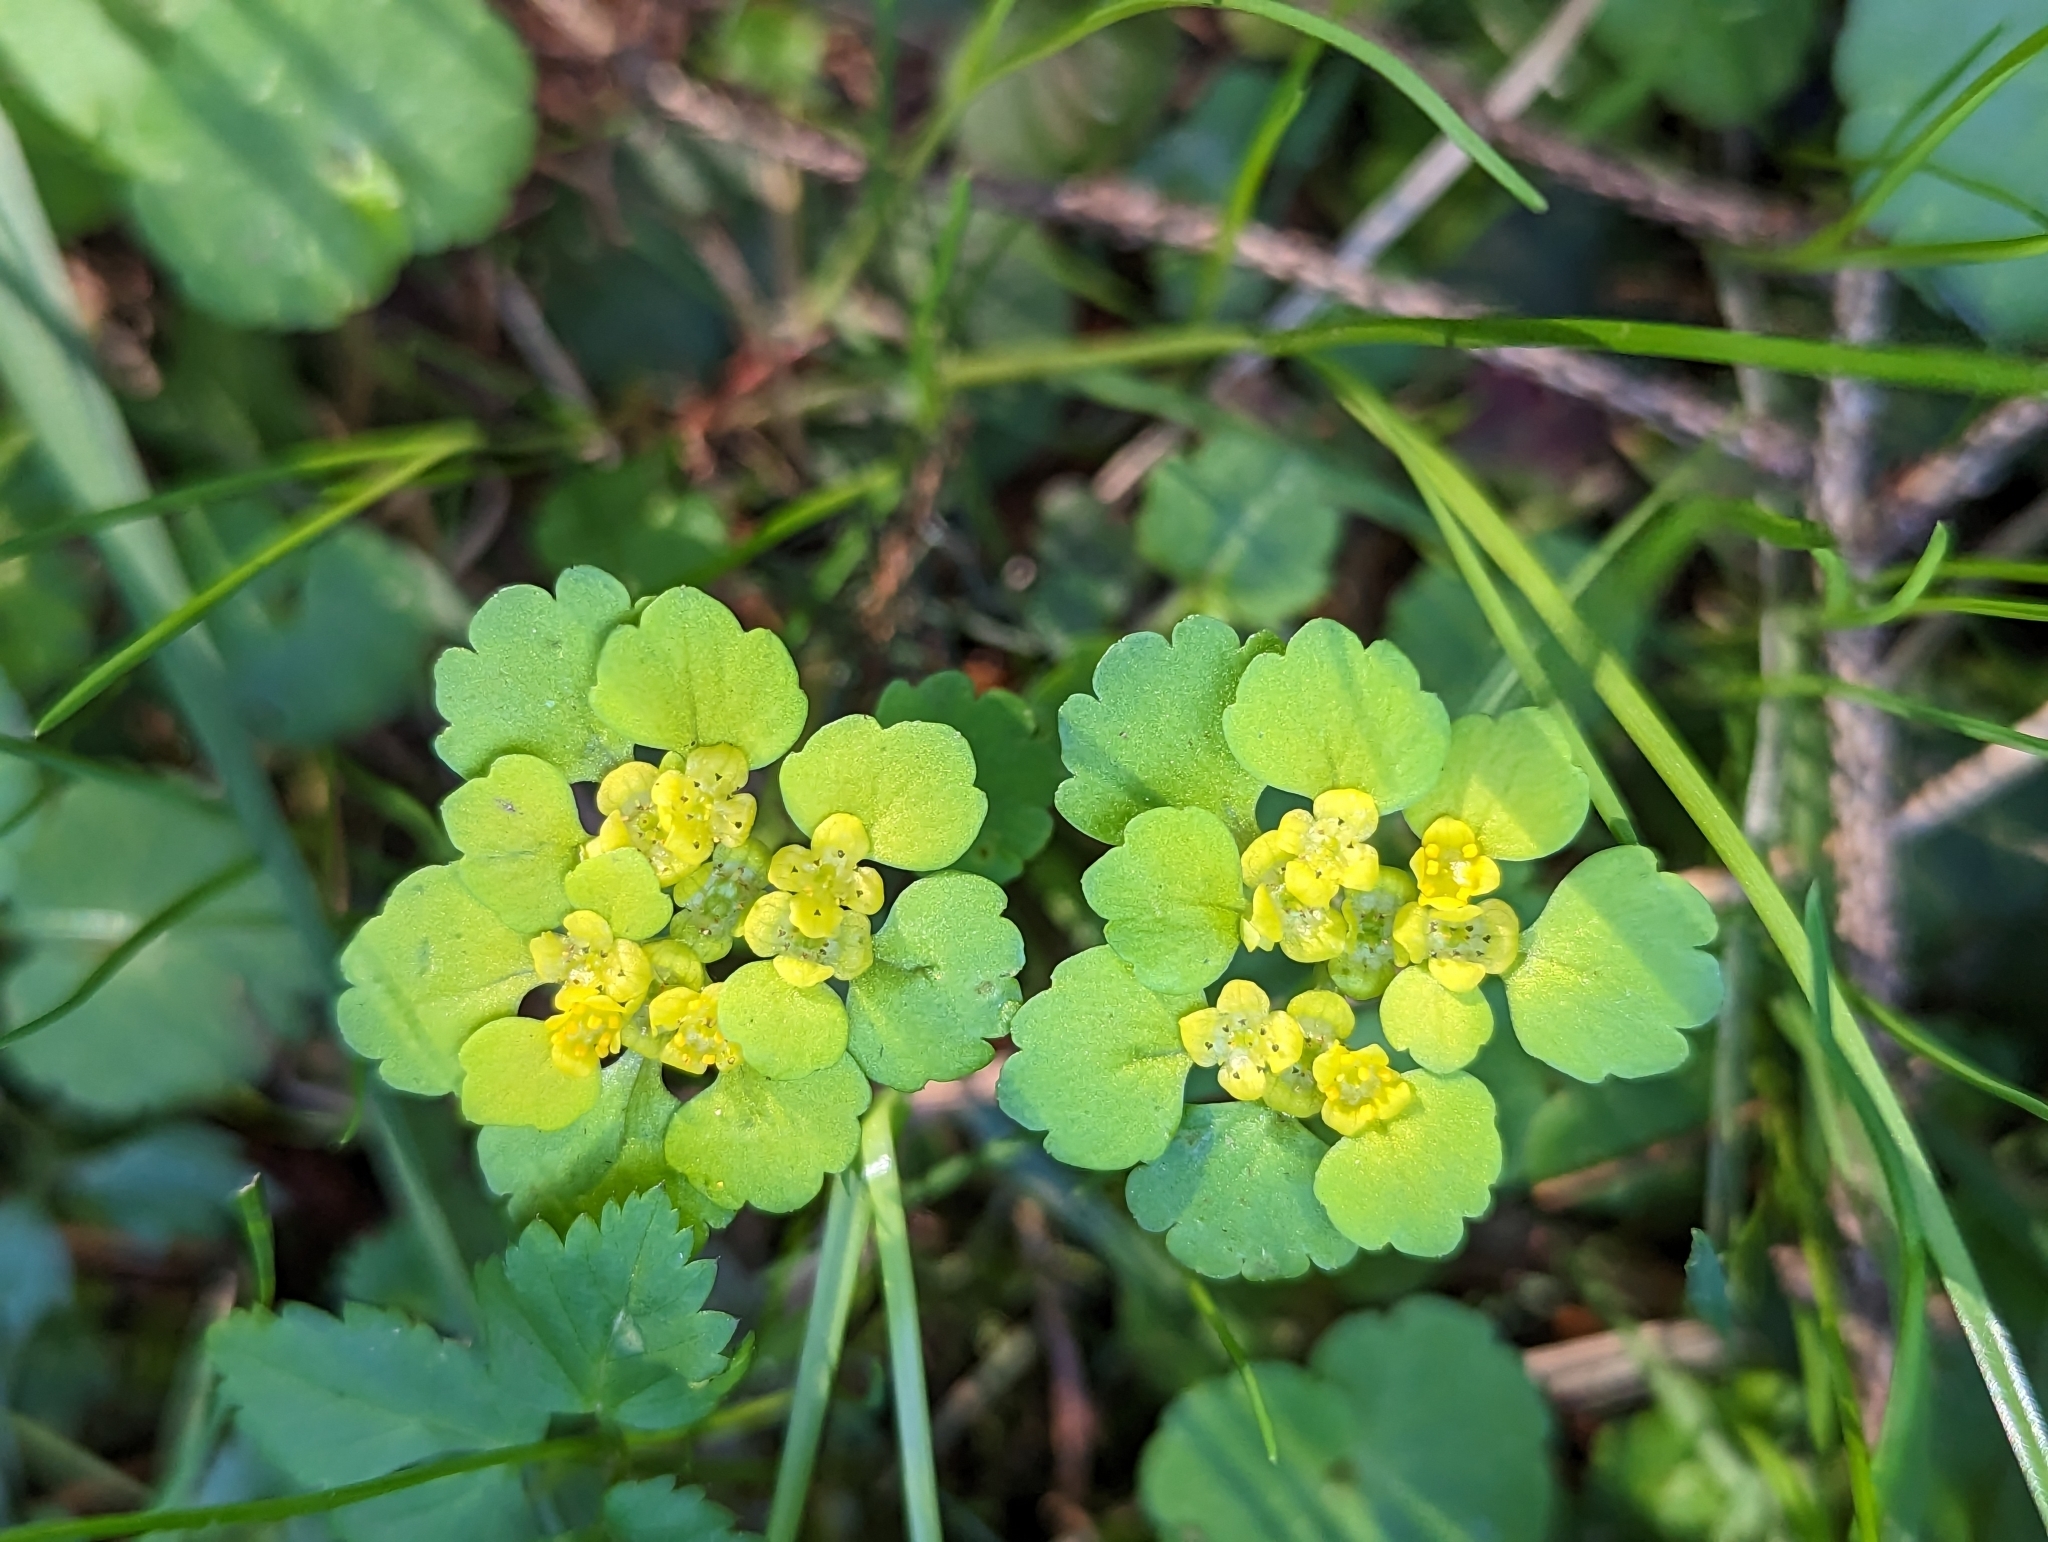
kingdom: Plantae
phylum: Tracheophyta
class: Magnoliopsida
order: Saxifragales
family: Saxifragaceae
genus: Chrysosplenium
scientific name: Chrysosplenium alternifolium
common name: Alternate-leaved golden-saxifrage
